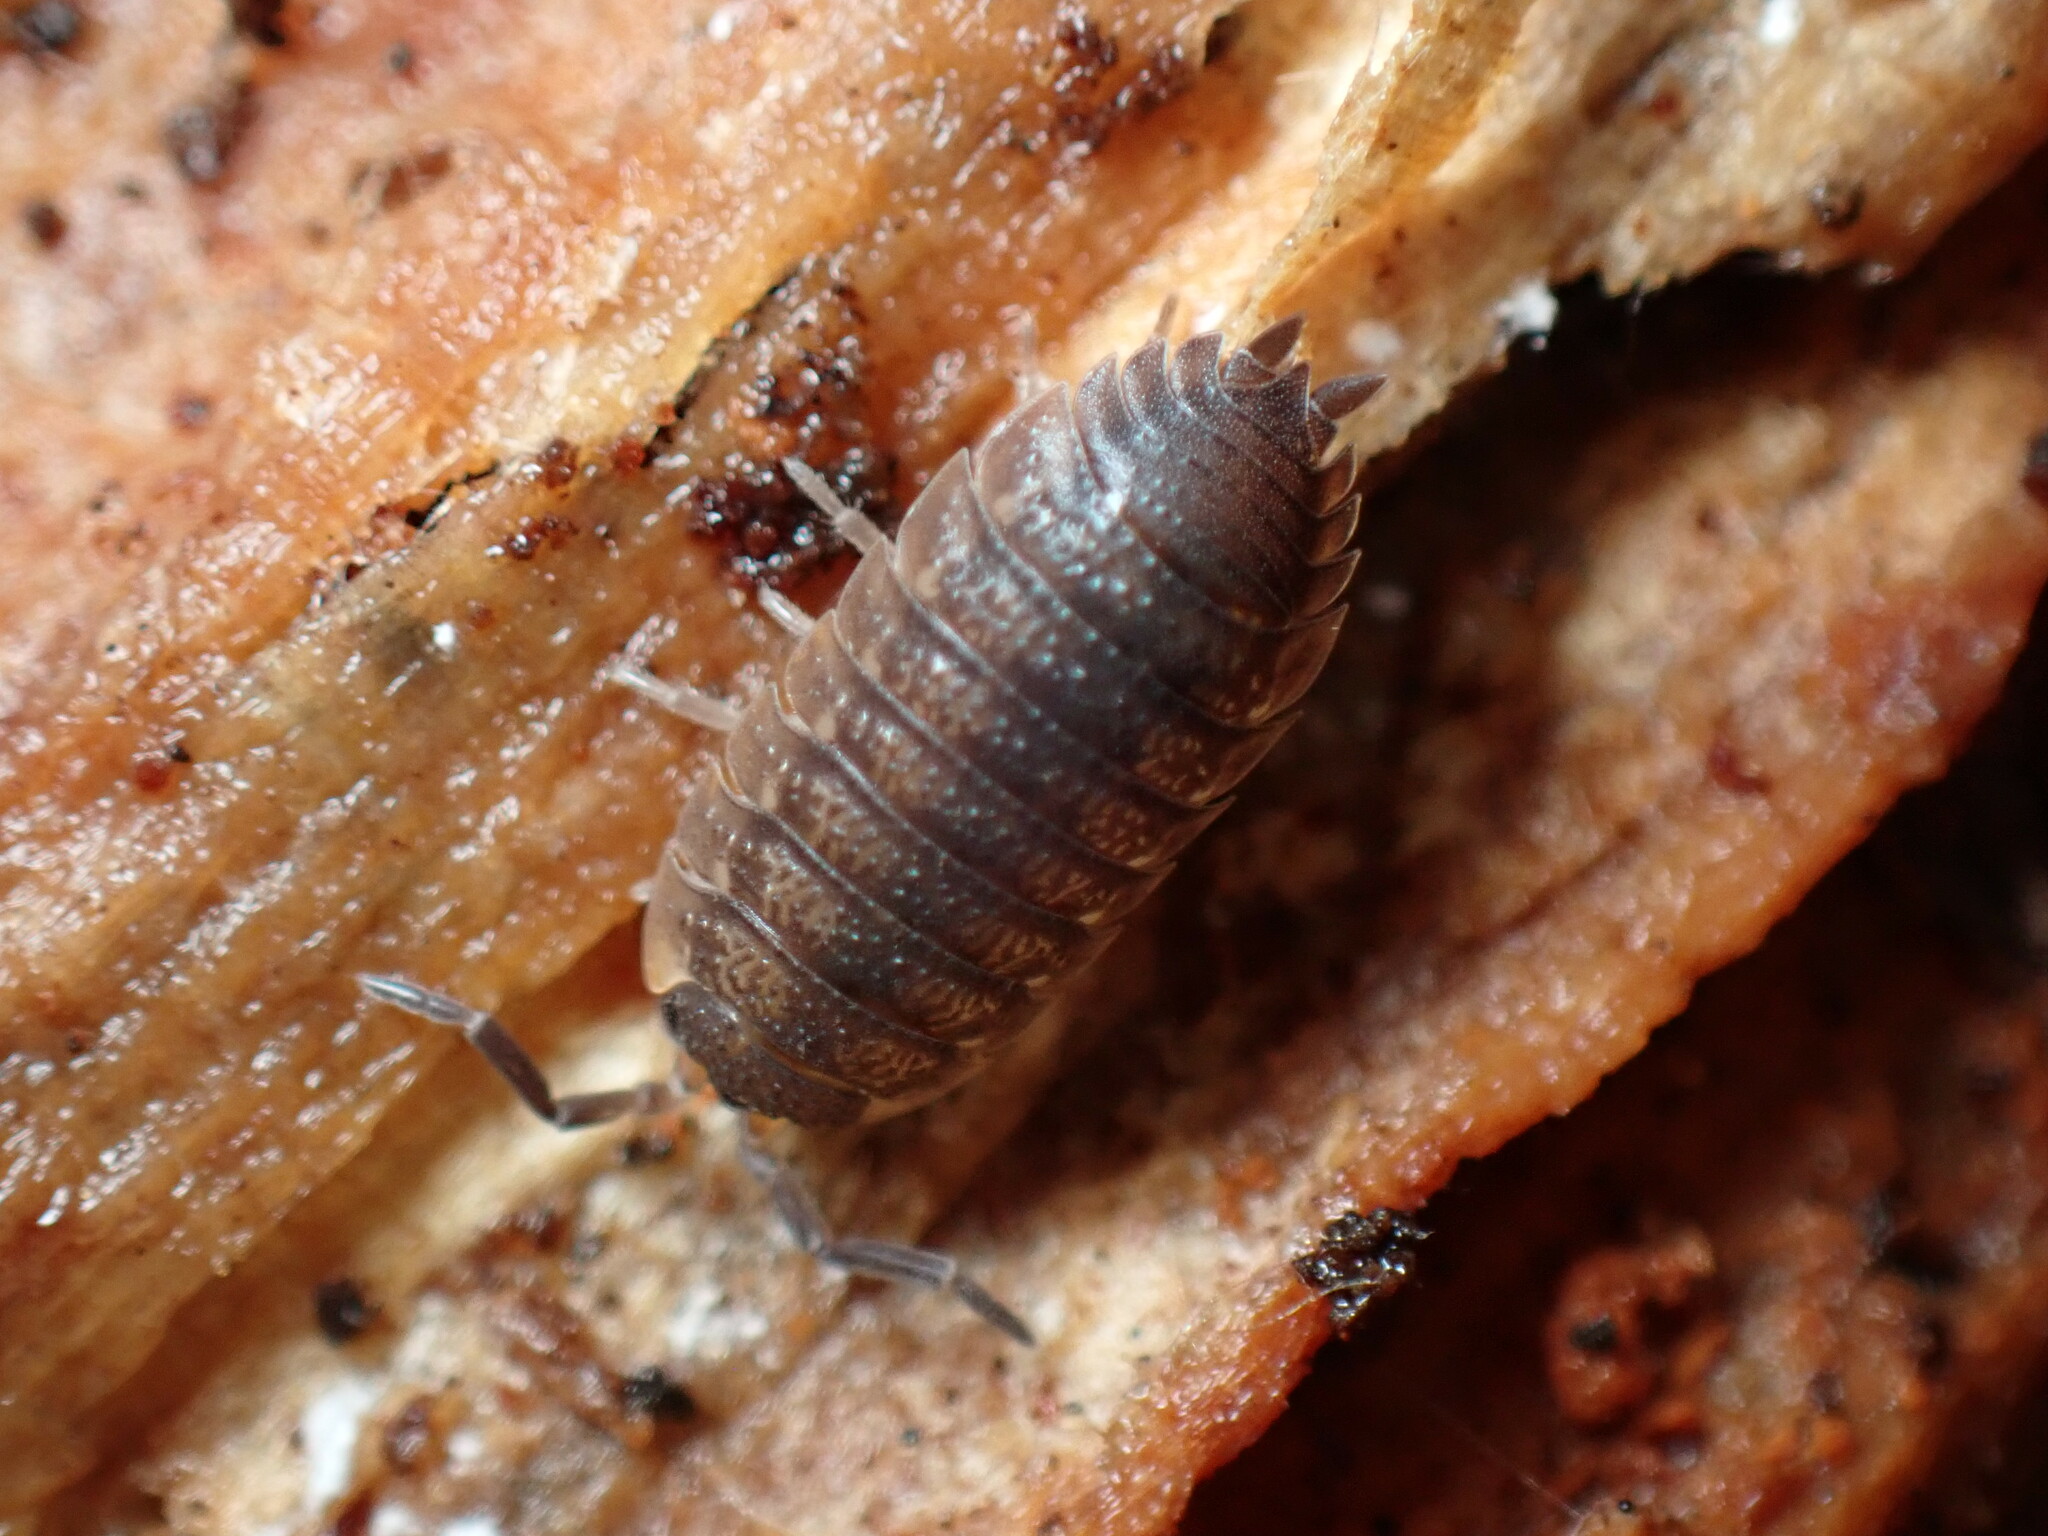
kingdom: Animalia
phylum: Arthropoda
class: Malacostraca
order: Isopoda
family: Porcellionidae
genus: Porcellio
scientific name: Porcellio scaber
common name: Common rough woodlouse
